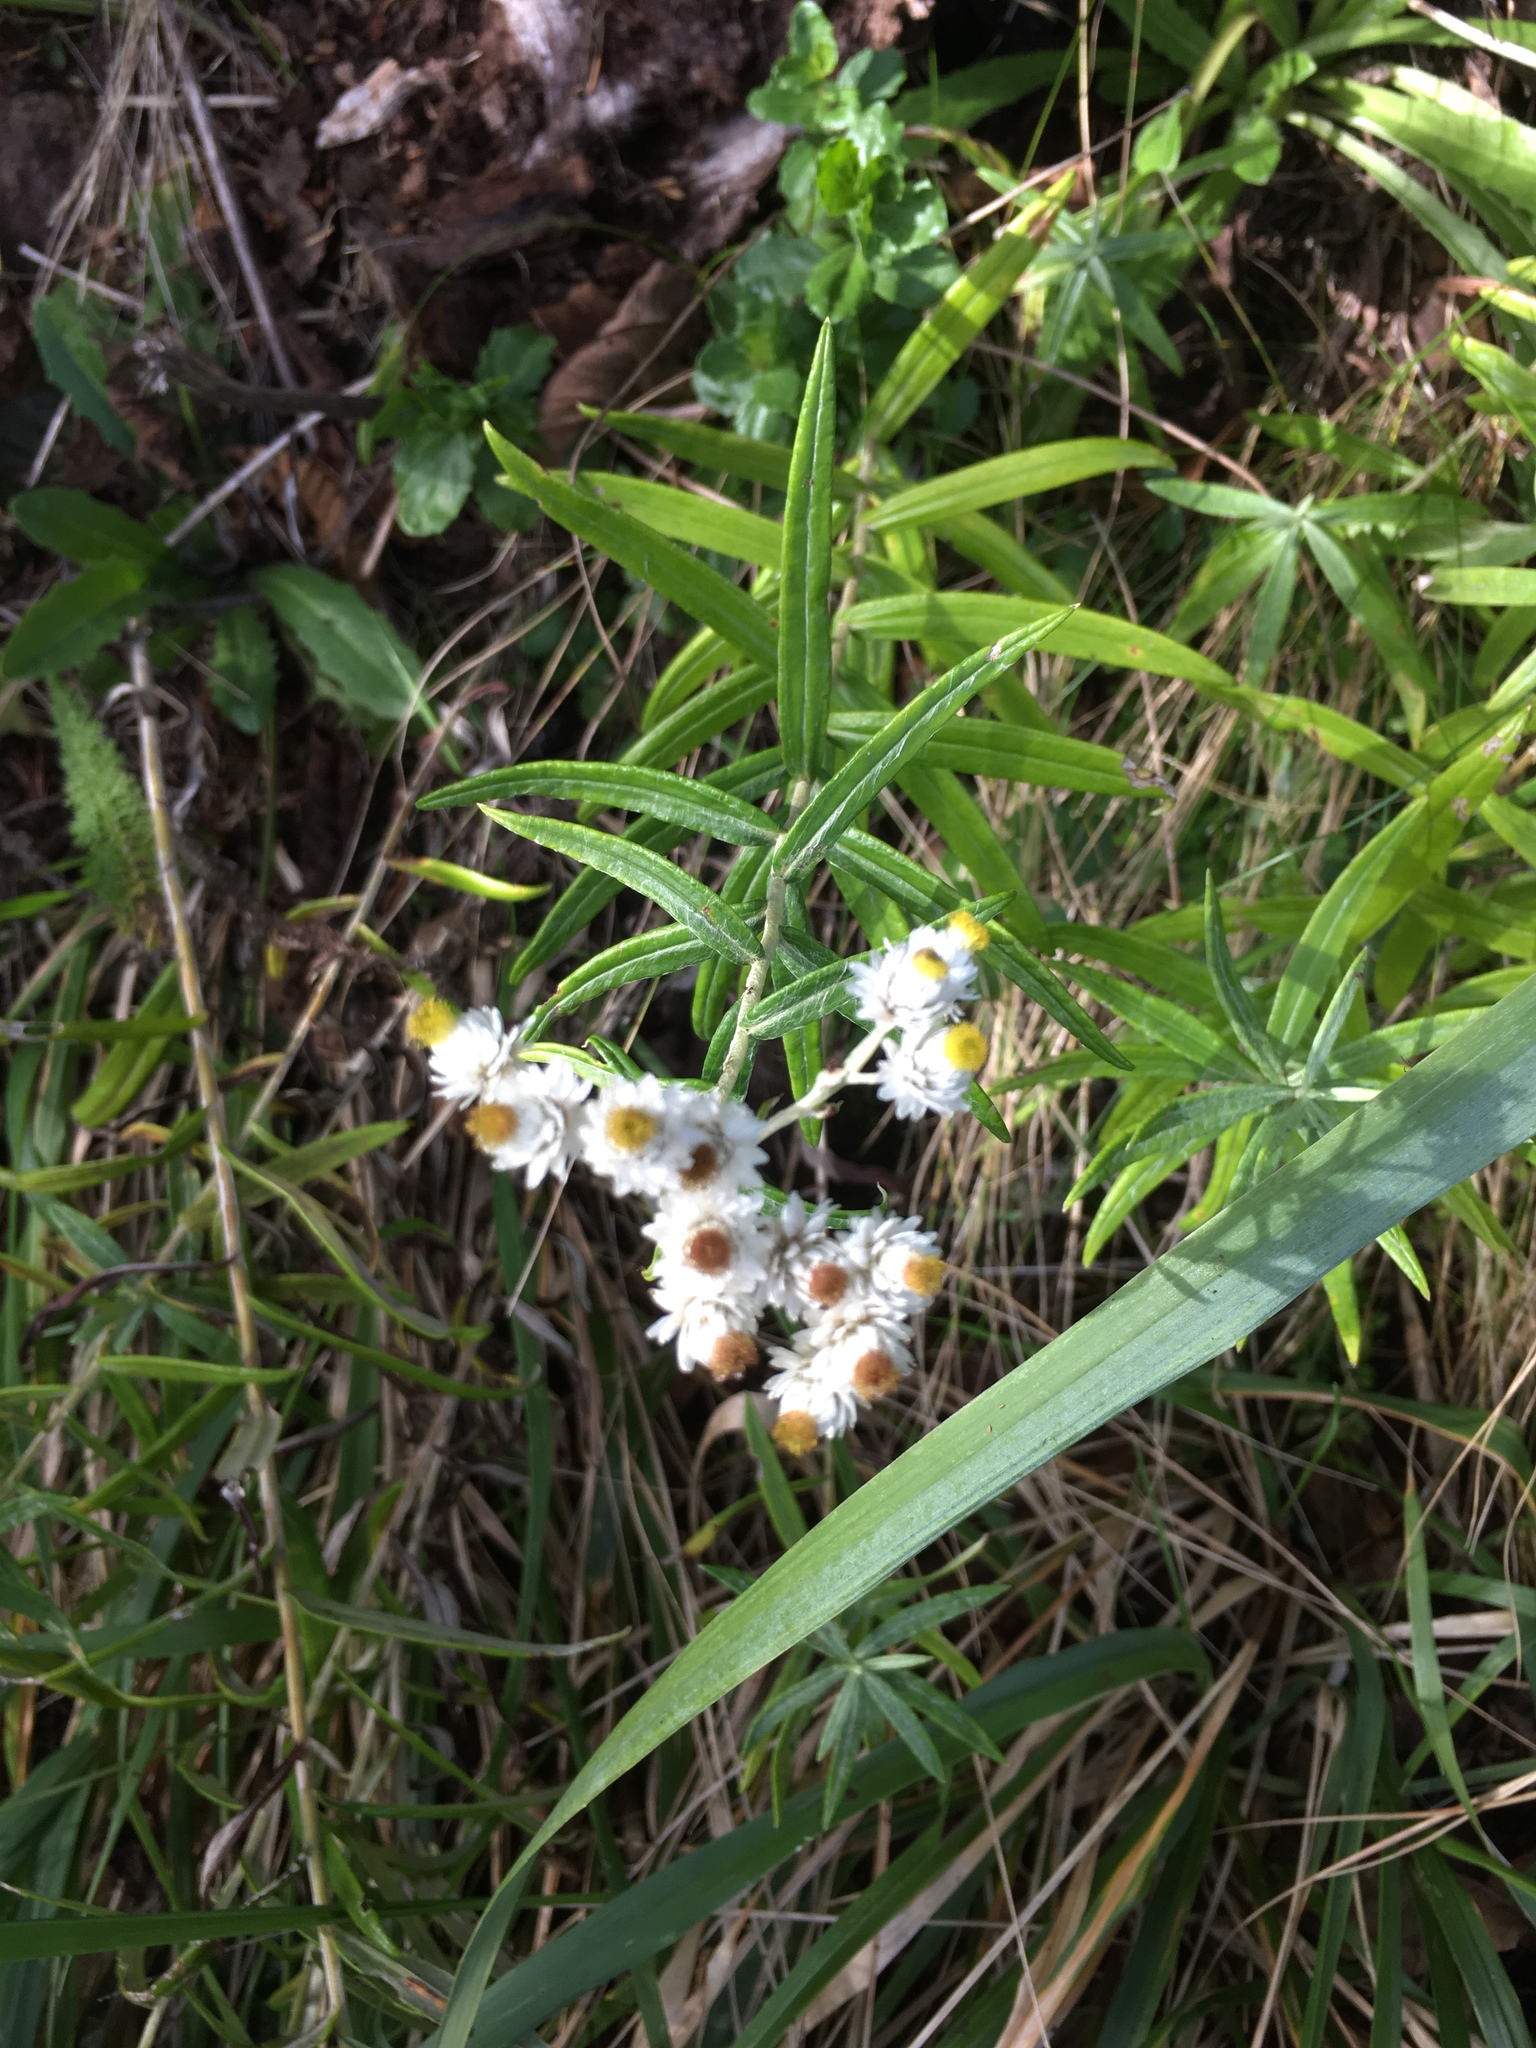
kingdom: Plantae
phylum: Tracheophyta
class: Magnoliopsida
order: Asterales
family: Asteraceae
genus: Anaphalis
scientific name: Anaphalis margaritacea
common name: Pearly everlasting
